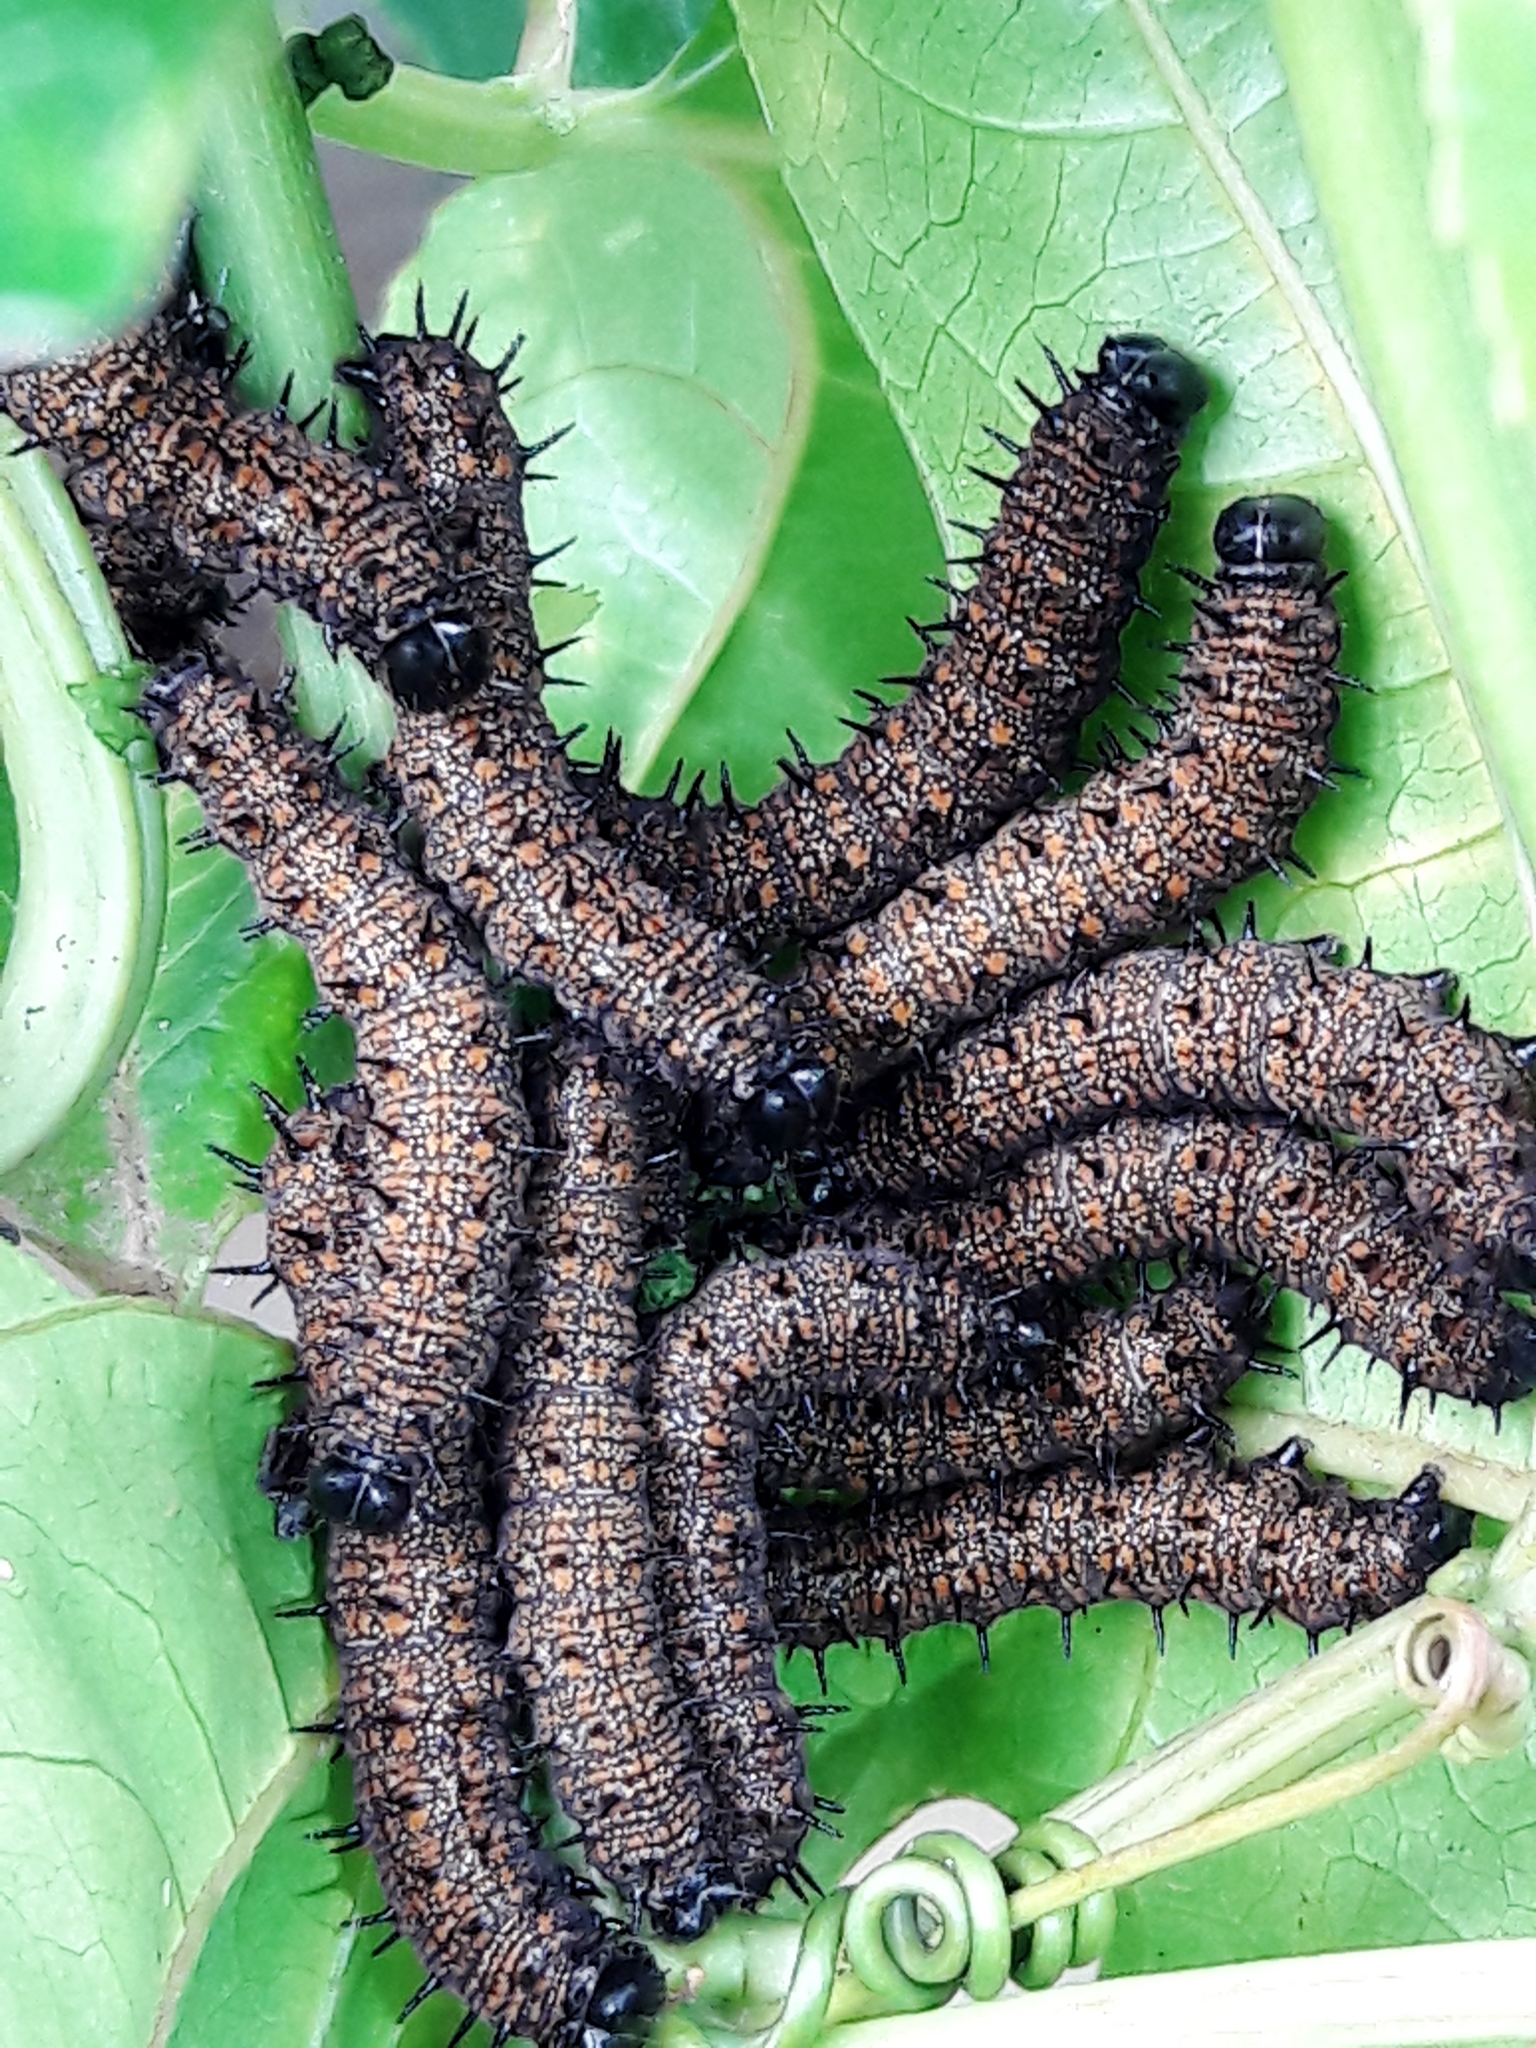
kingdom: Animalia
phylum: Arthropoda
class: Insecta
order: Lepidoptera
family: Nymphalidae
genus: Dione
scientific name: Dione juno
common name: Juno silverspot
